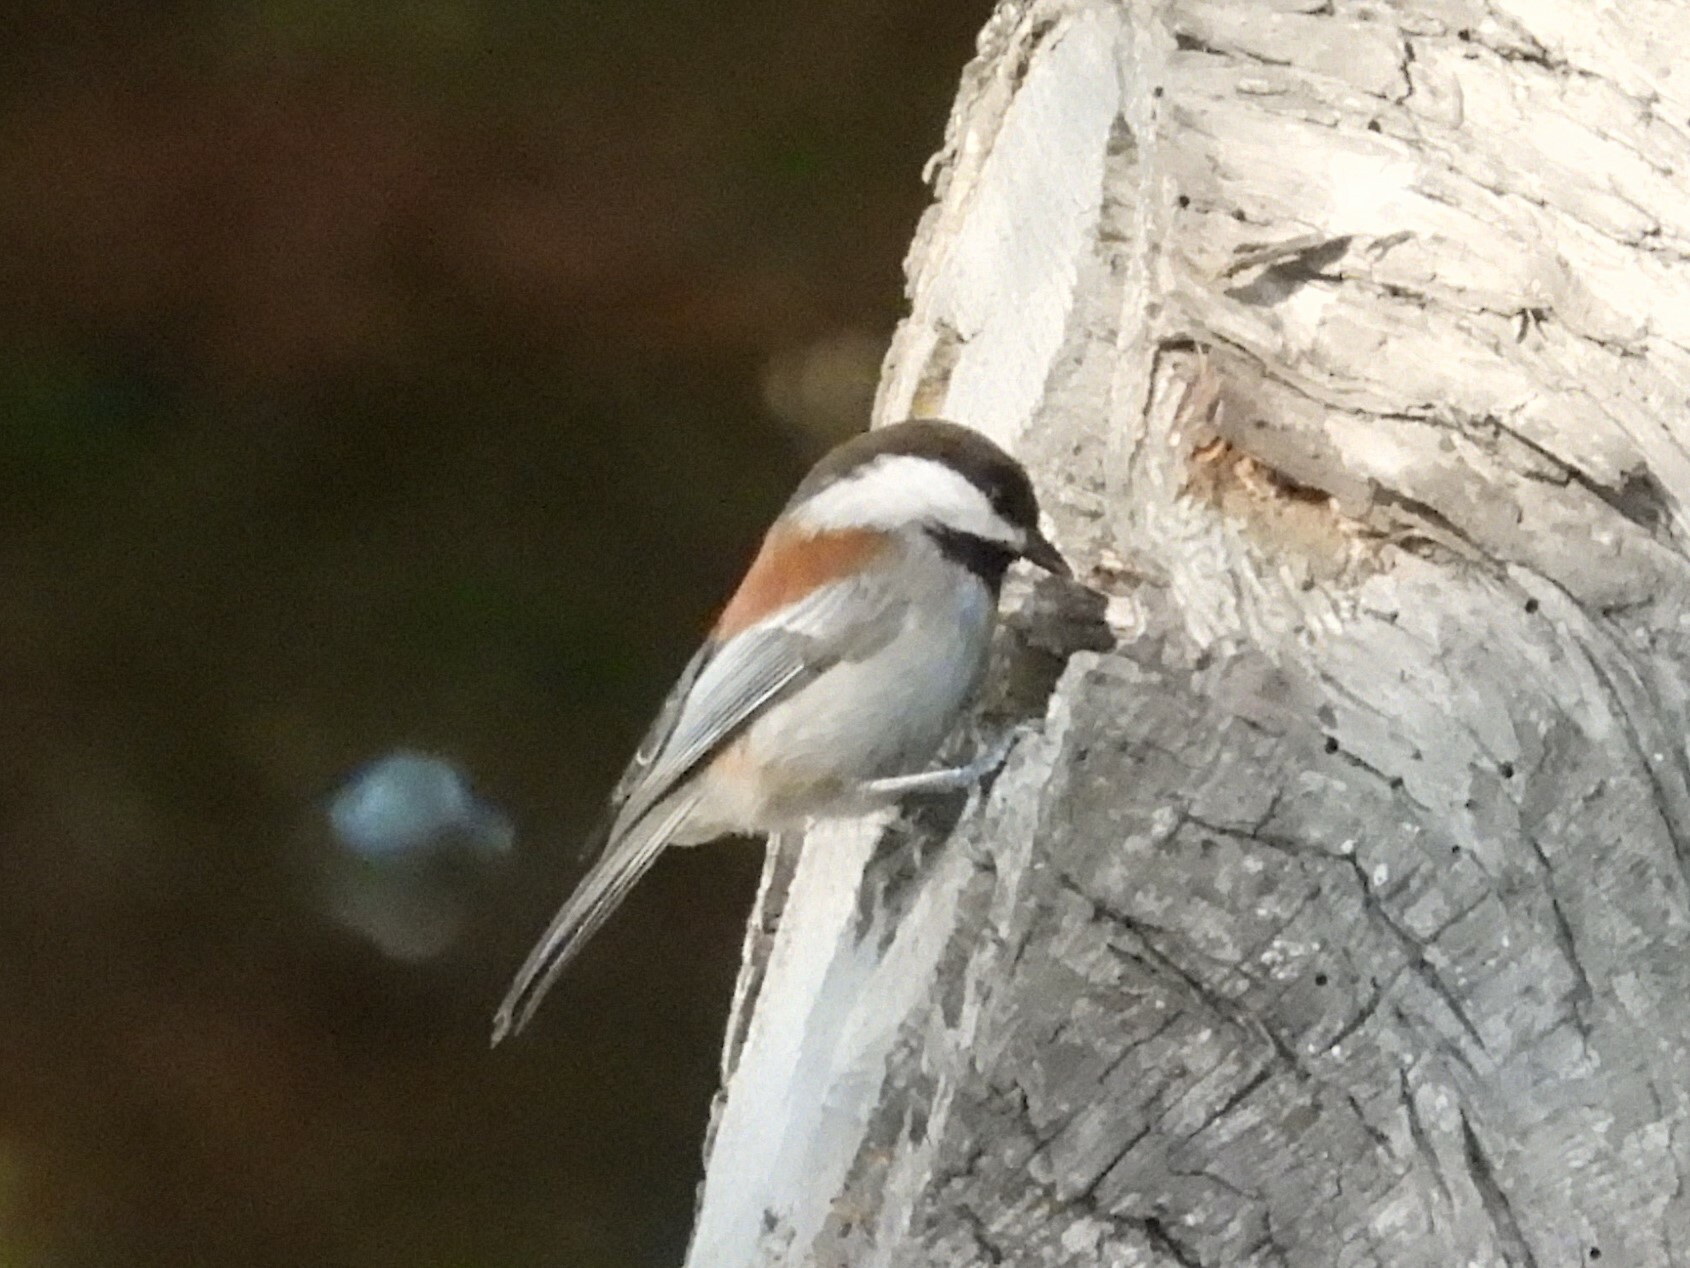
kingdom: Animalia
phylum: Chordata
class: Aves
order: Passeriformes
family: Paridae
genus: Poecile
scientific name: Poecile rufescens
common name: Chestnut-backed chickadee
